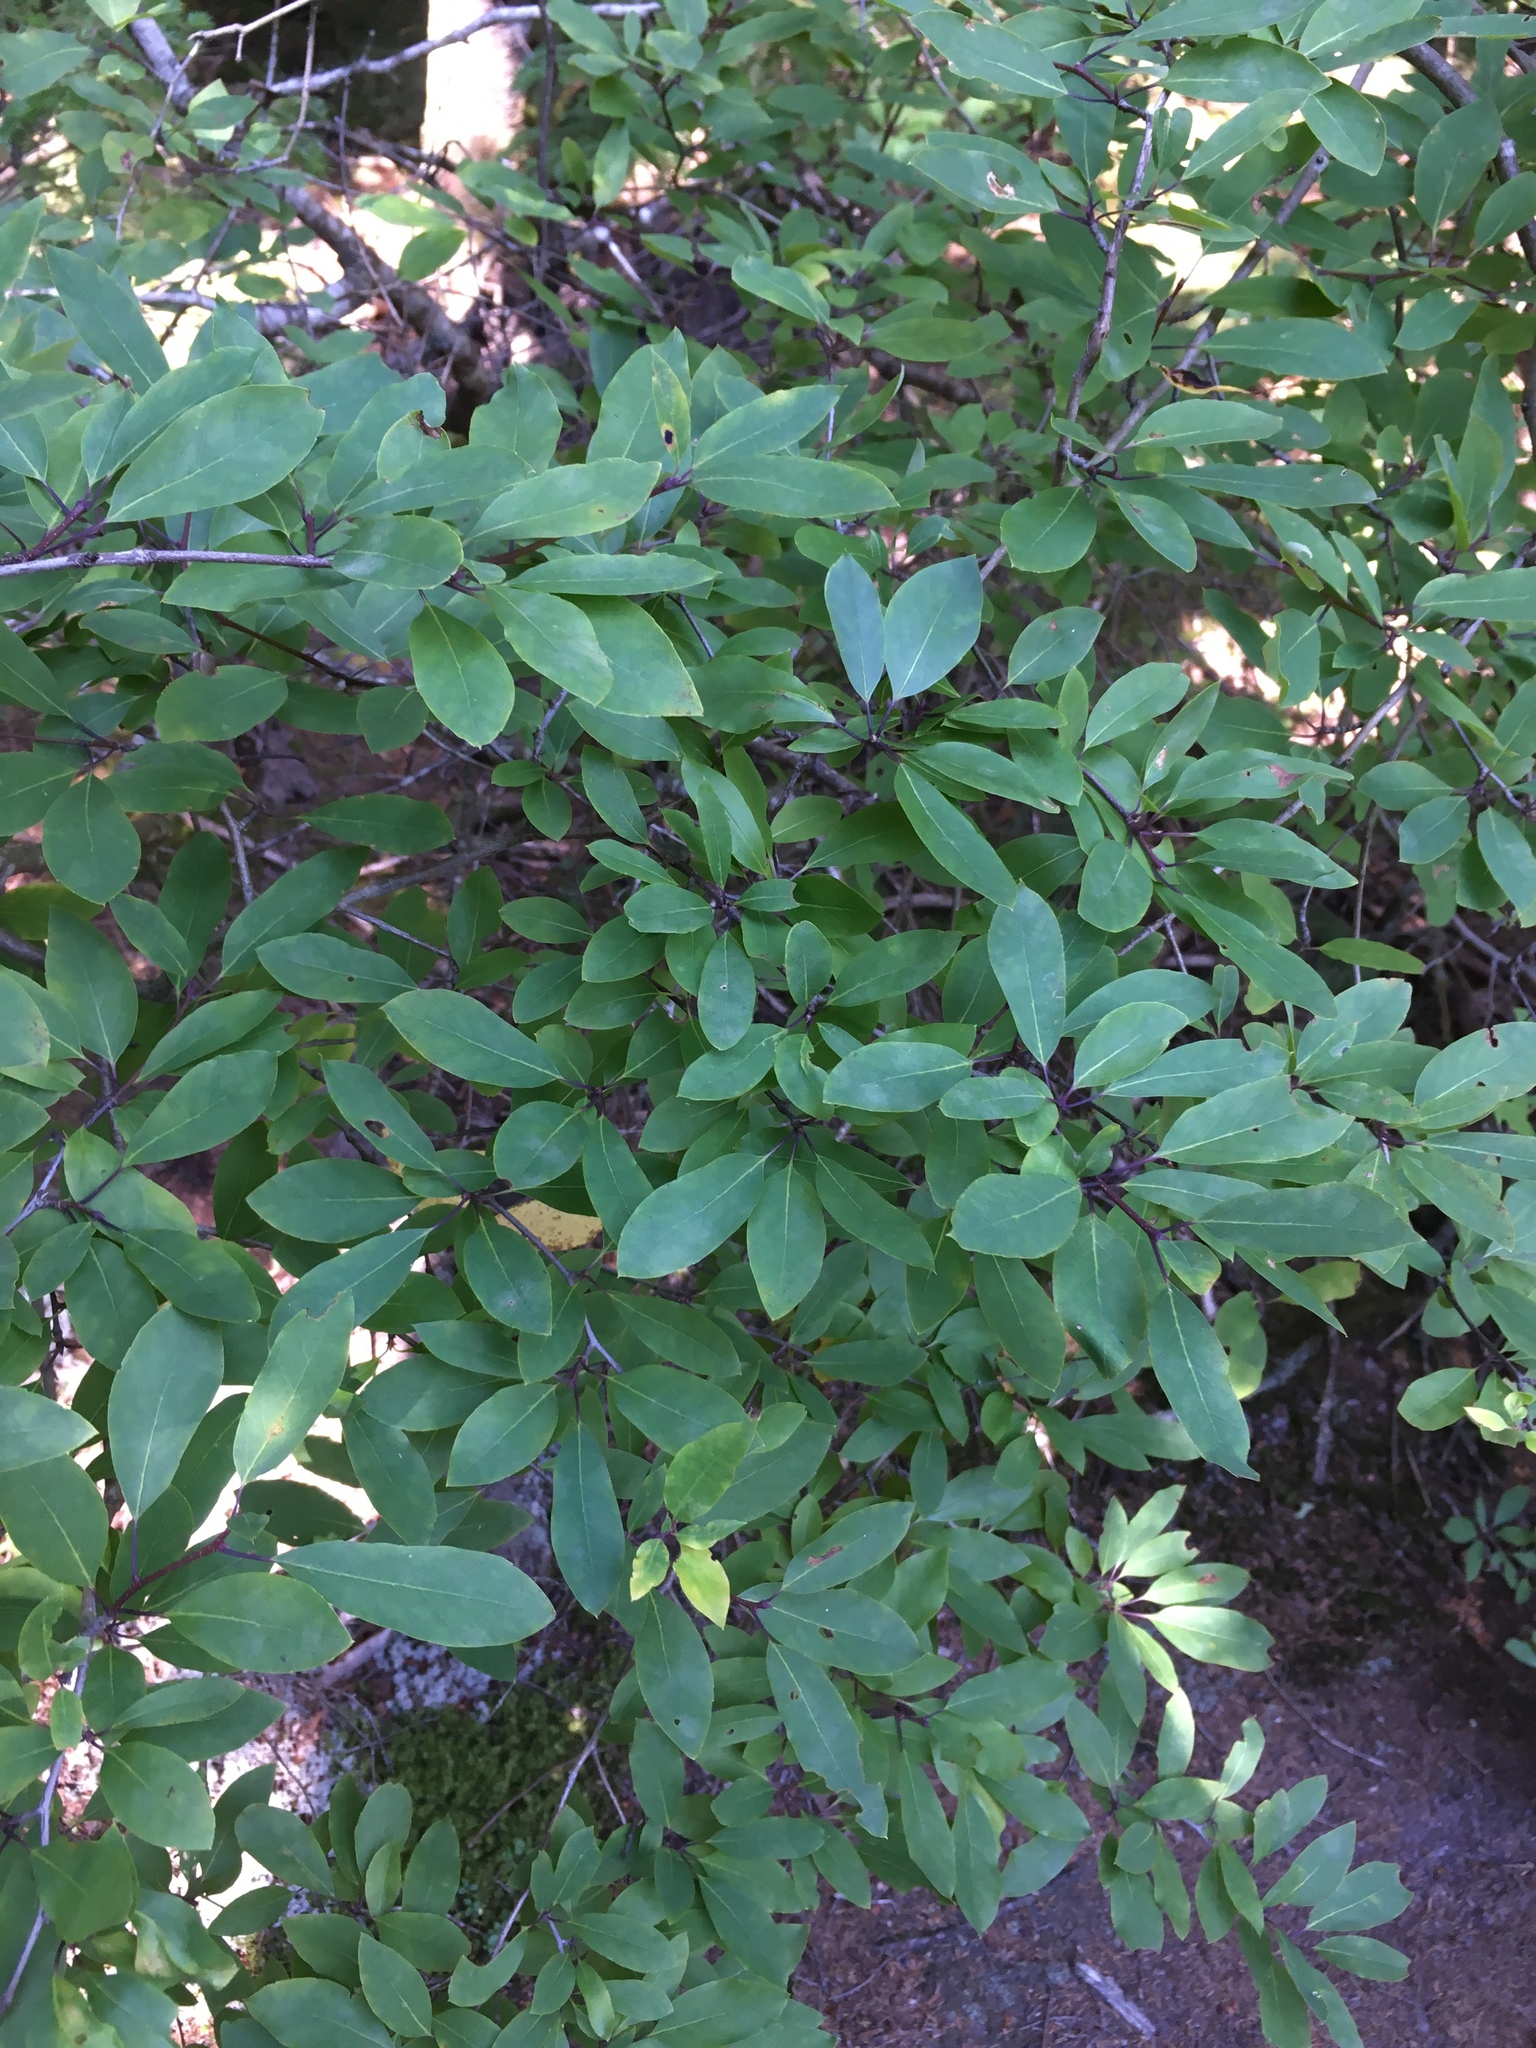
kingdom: Plantae
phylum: Tracheophyta
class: Magnoliopsida
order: Aquifoliales
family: Aquifoliaceae
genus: Ilex
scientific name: Ilex mucronata
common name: Catberry
